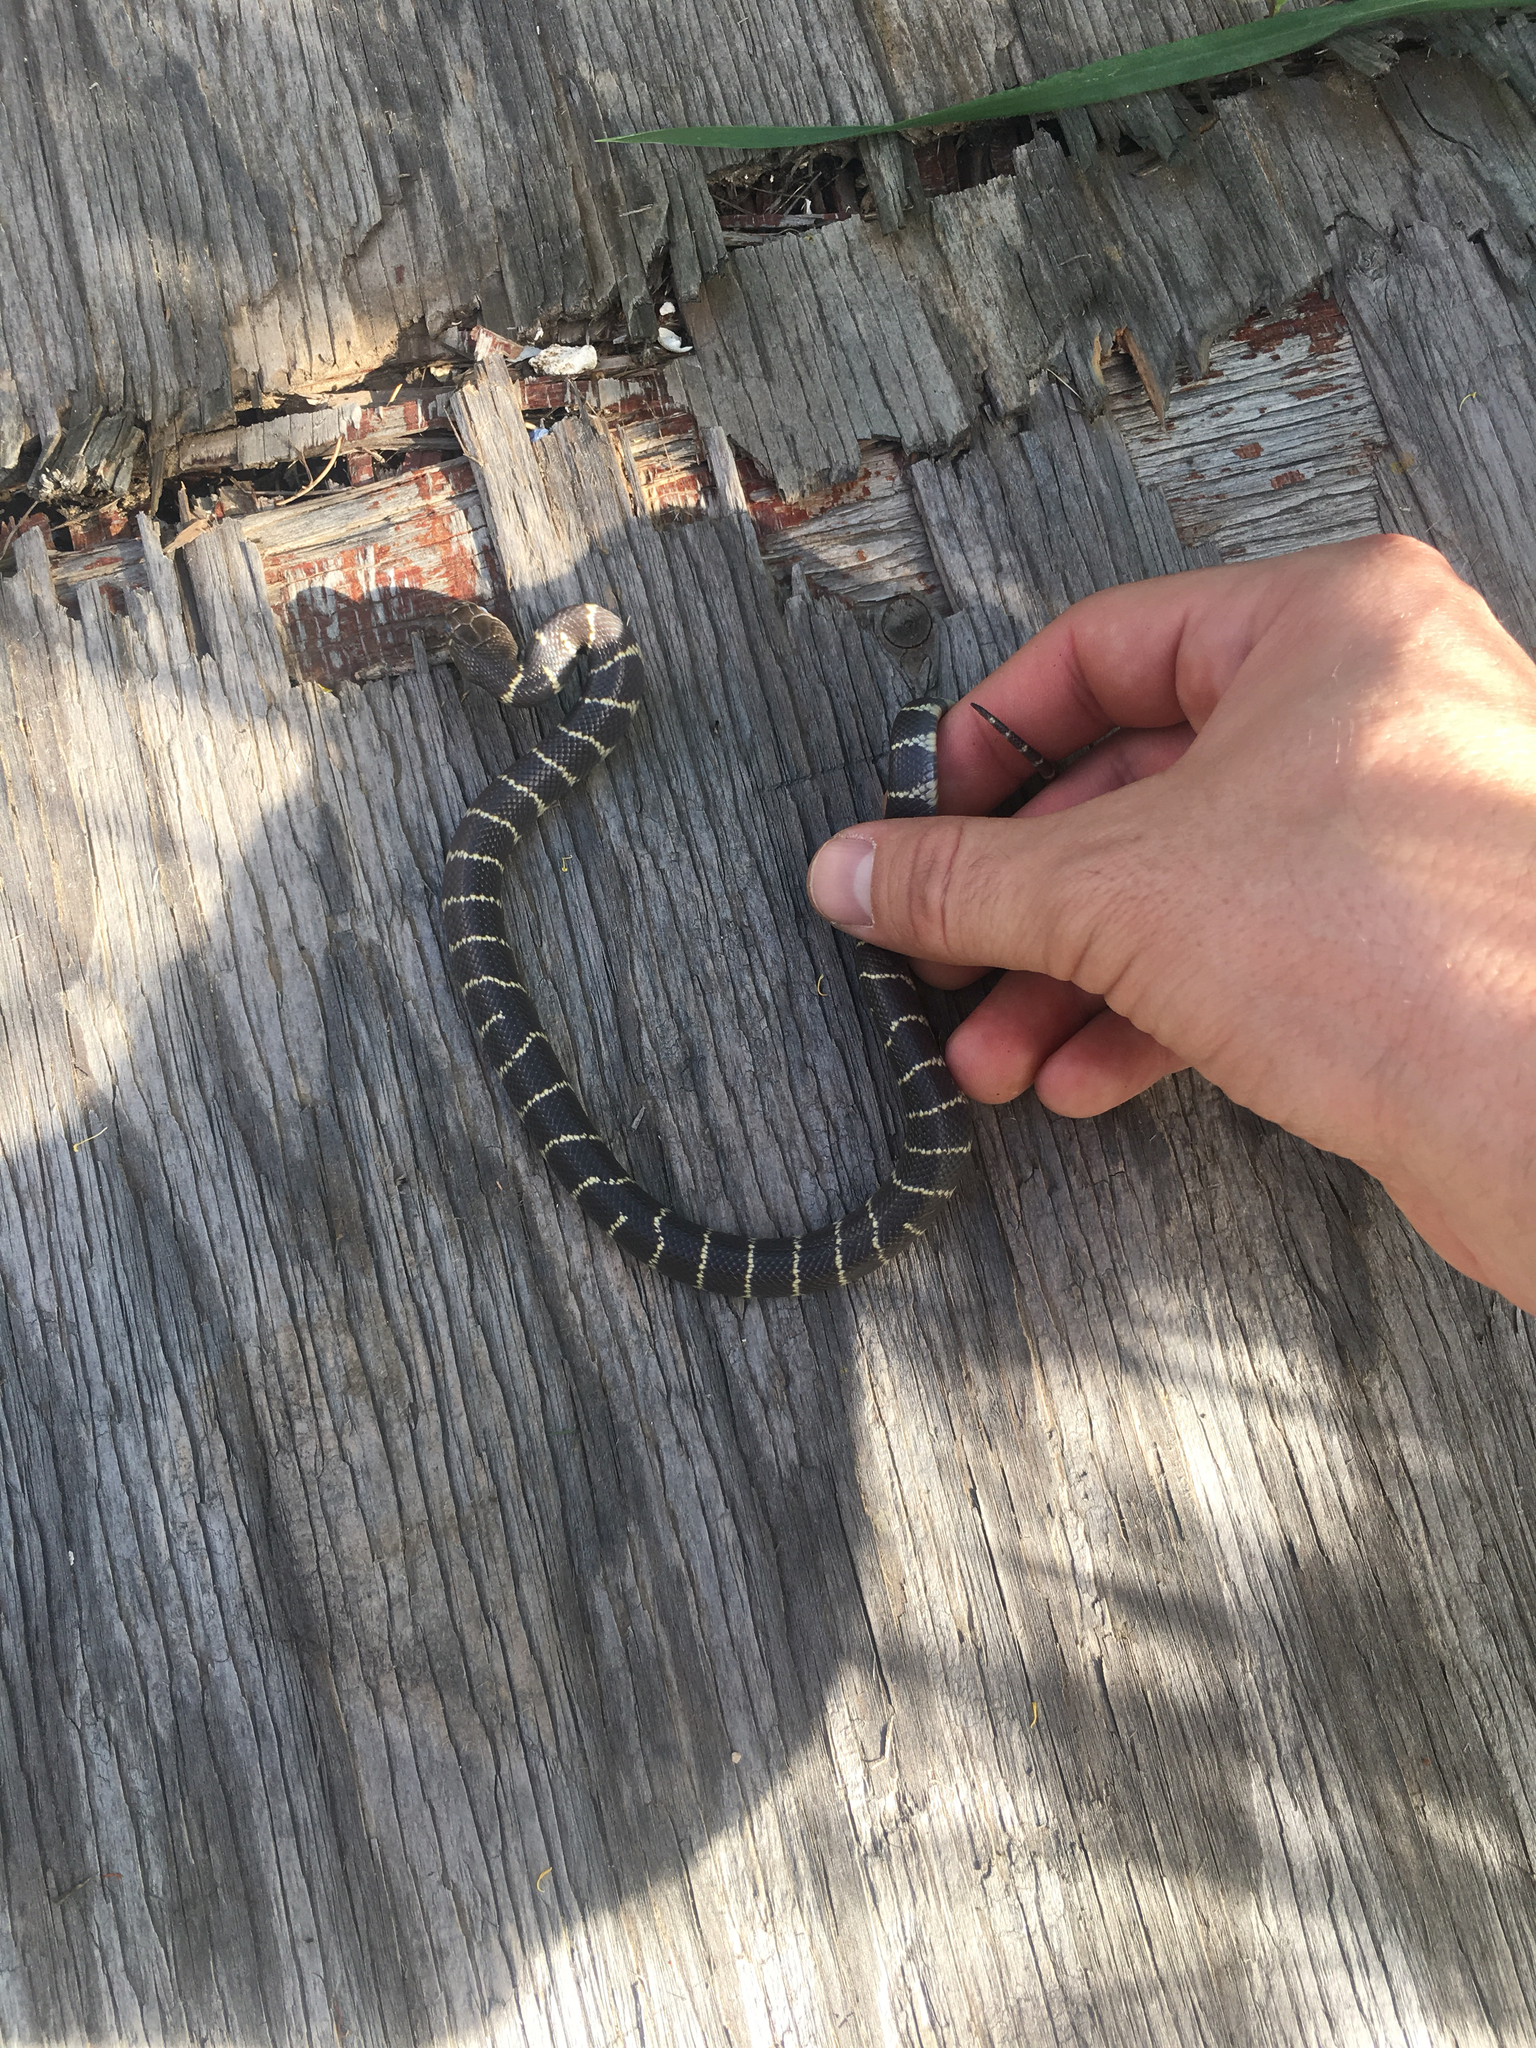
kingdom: Animalia
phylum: Chordata
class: Squamata
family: Colubridae
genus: Lampropeltis
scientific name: Lampropeltis californiae
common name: California kingsnake
